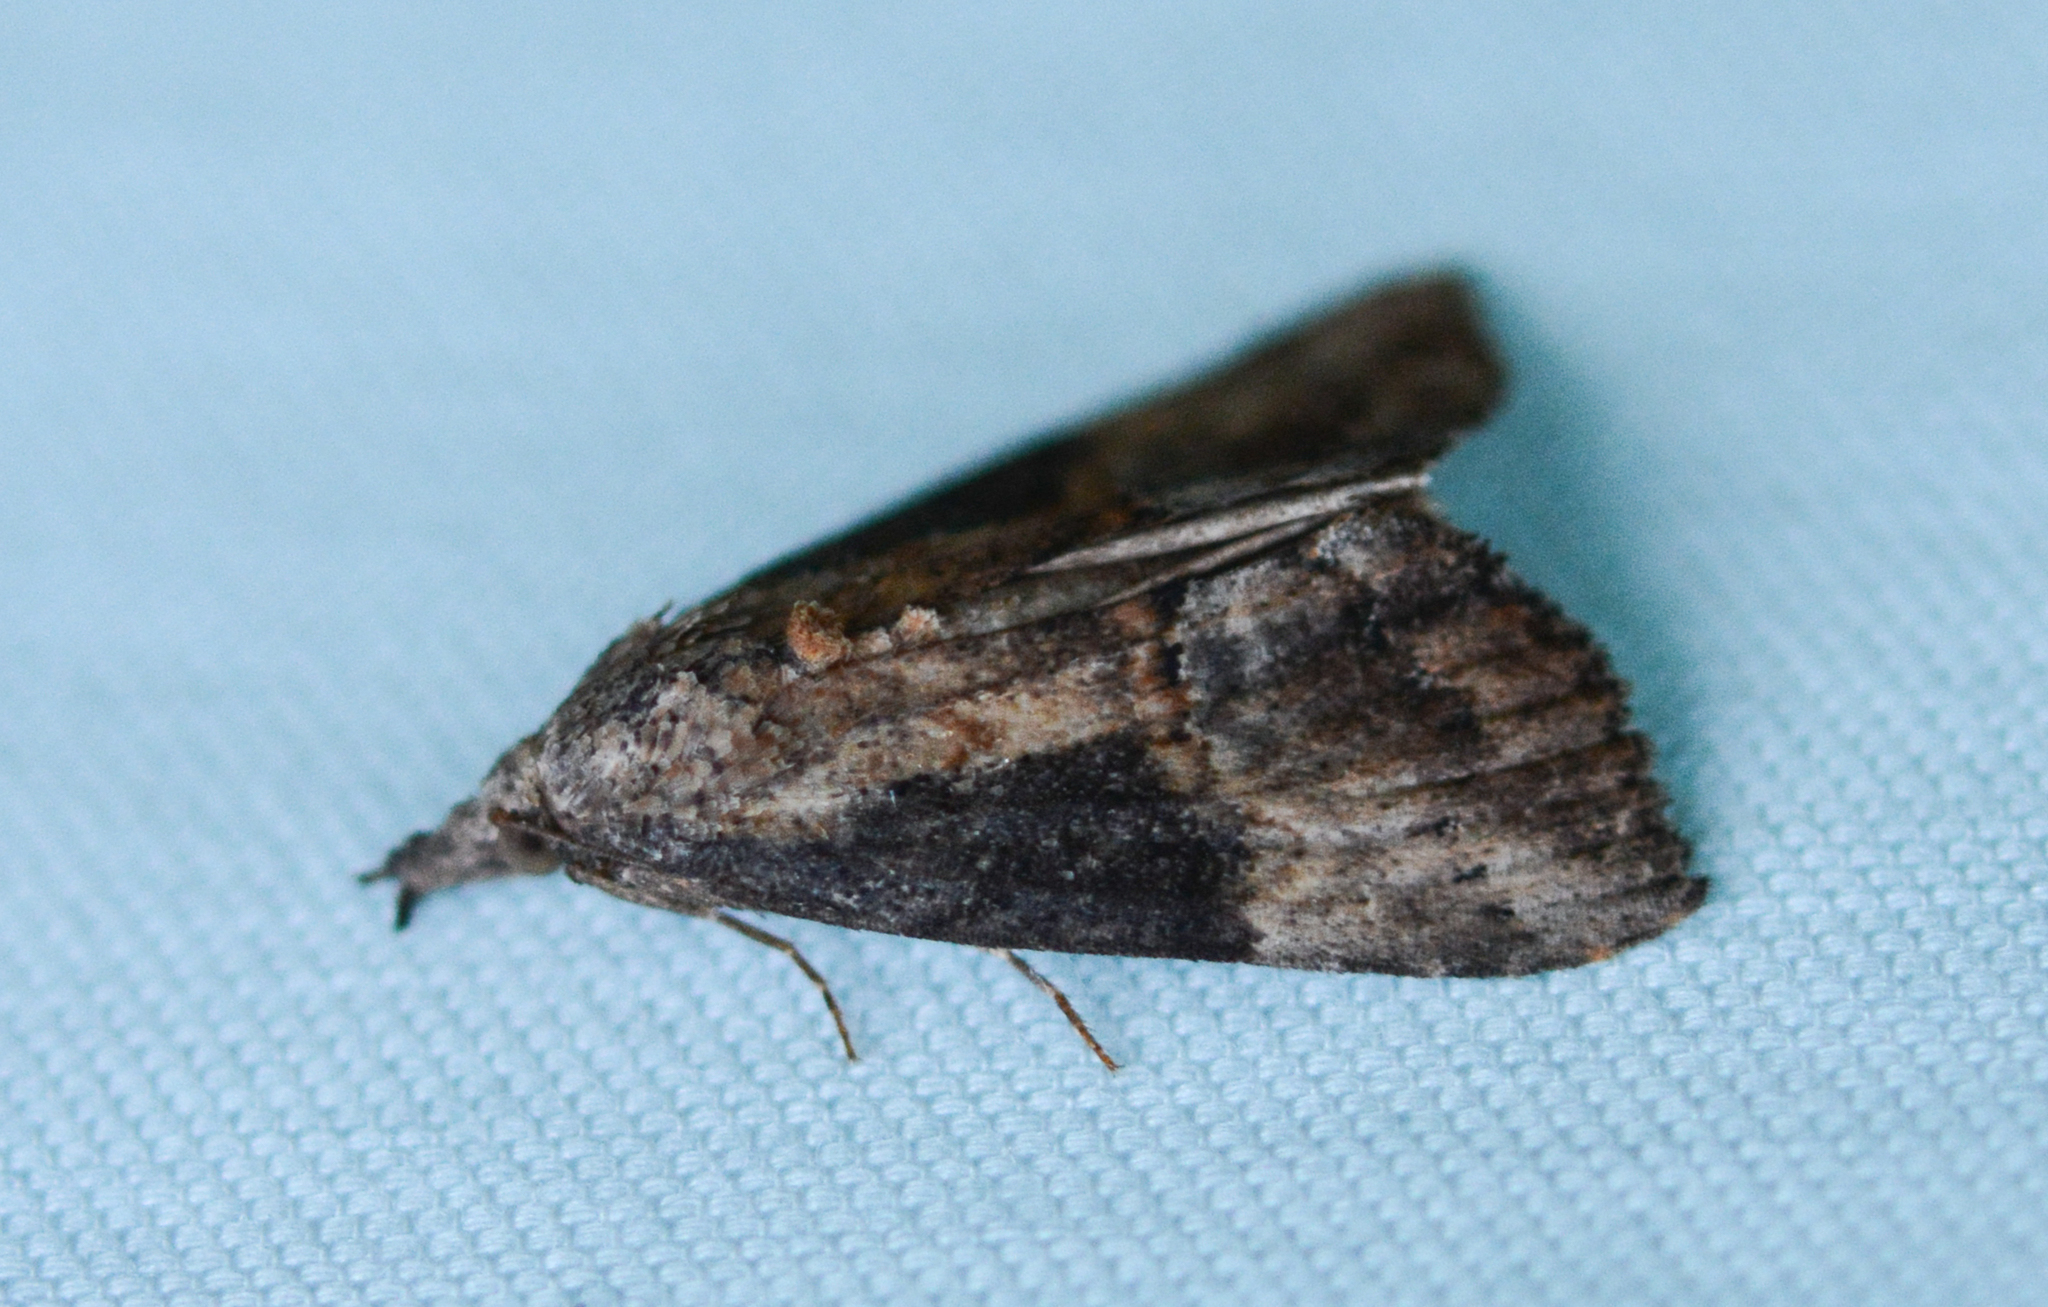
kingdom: Animalia
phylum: Arthropoda
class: Insecta
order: Lepidoptera
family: Erebidae
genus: Hypena
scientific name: Hypena scabra
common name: Green cloverworm
